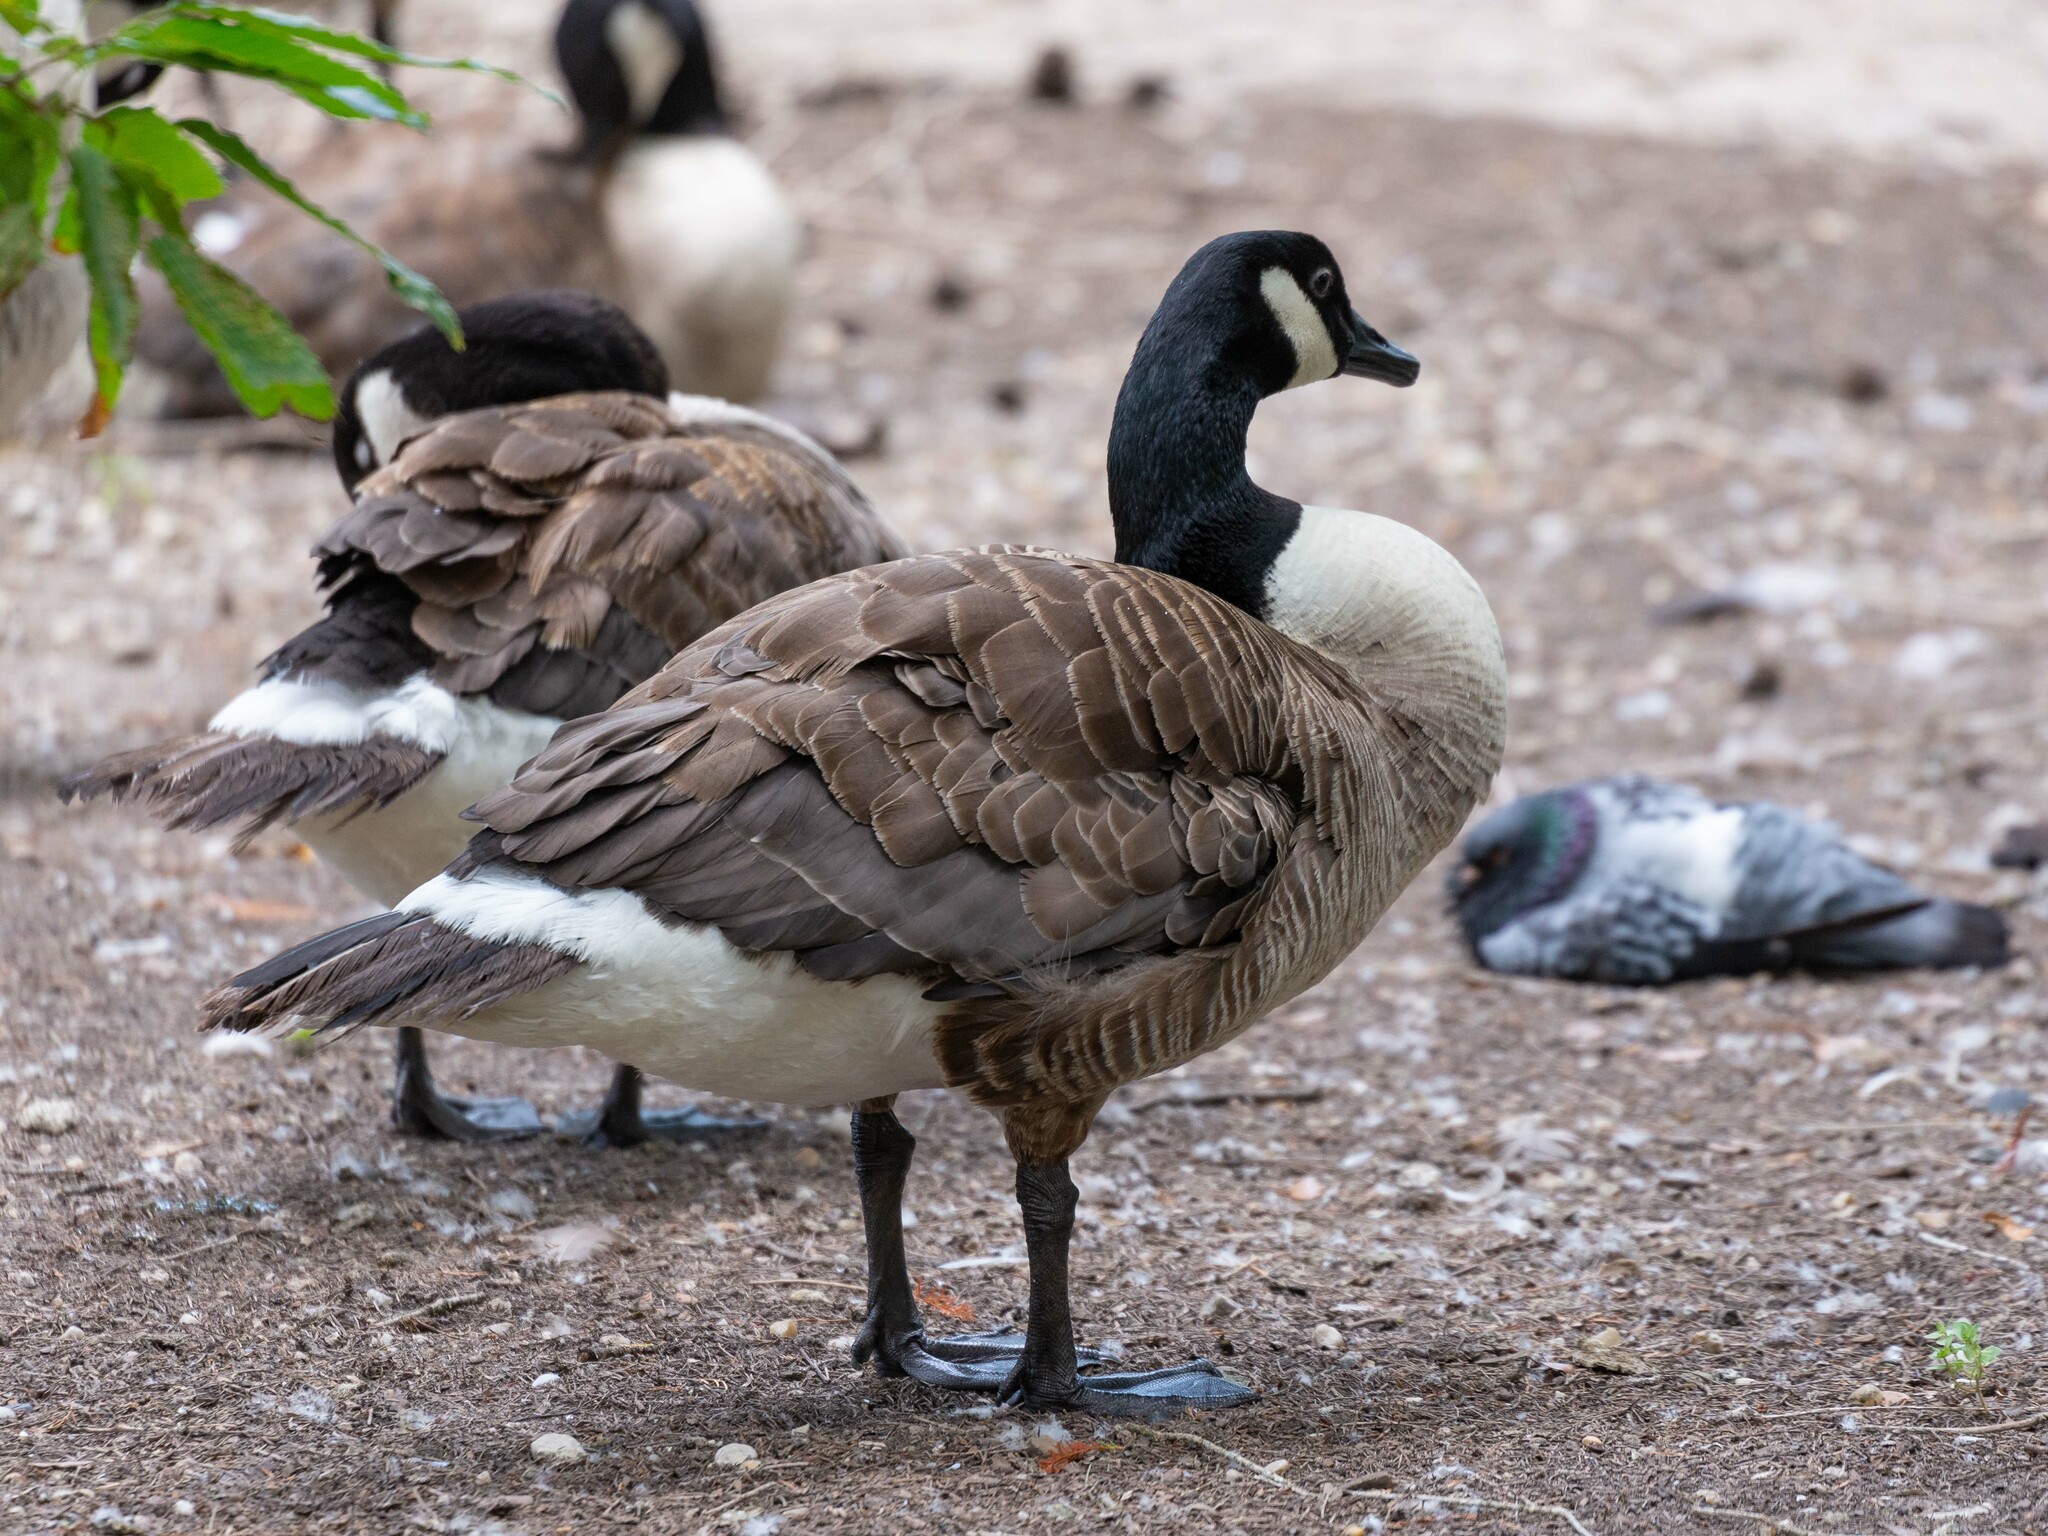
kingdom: Animalia
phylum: Chordata
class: Aves
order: Anseriformes
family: Anatidae
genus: Branta
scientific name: Branta canadensis
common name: Canada goose
